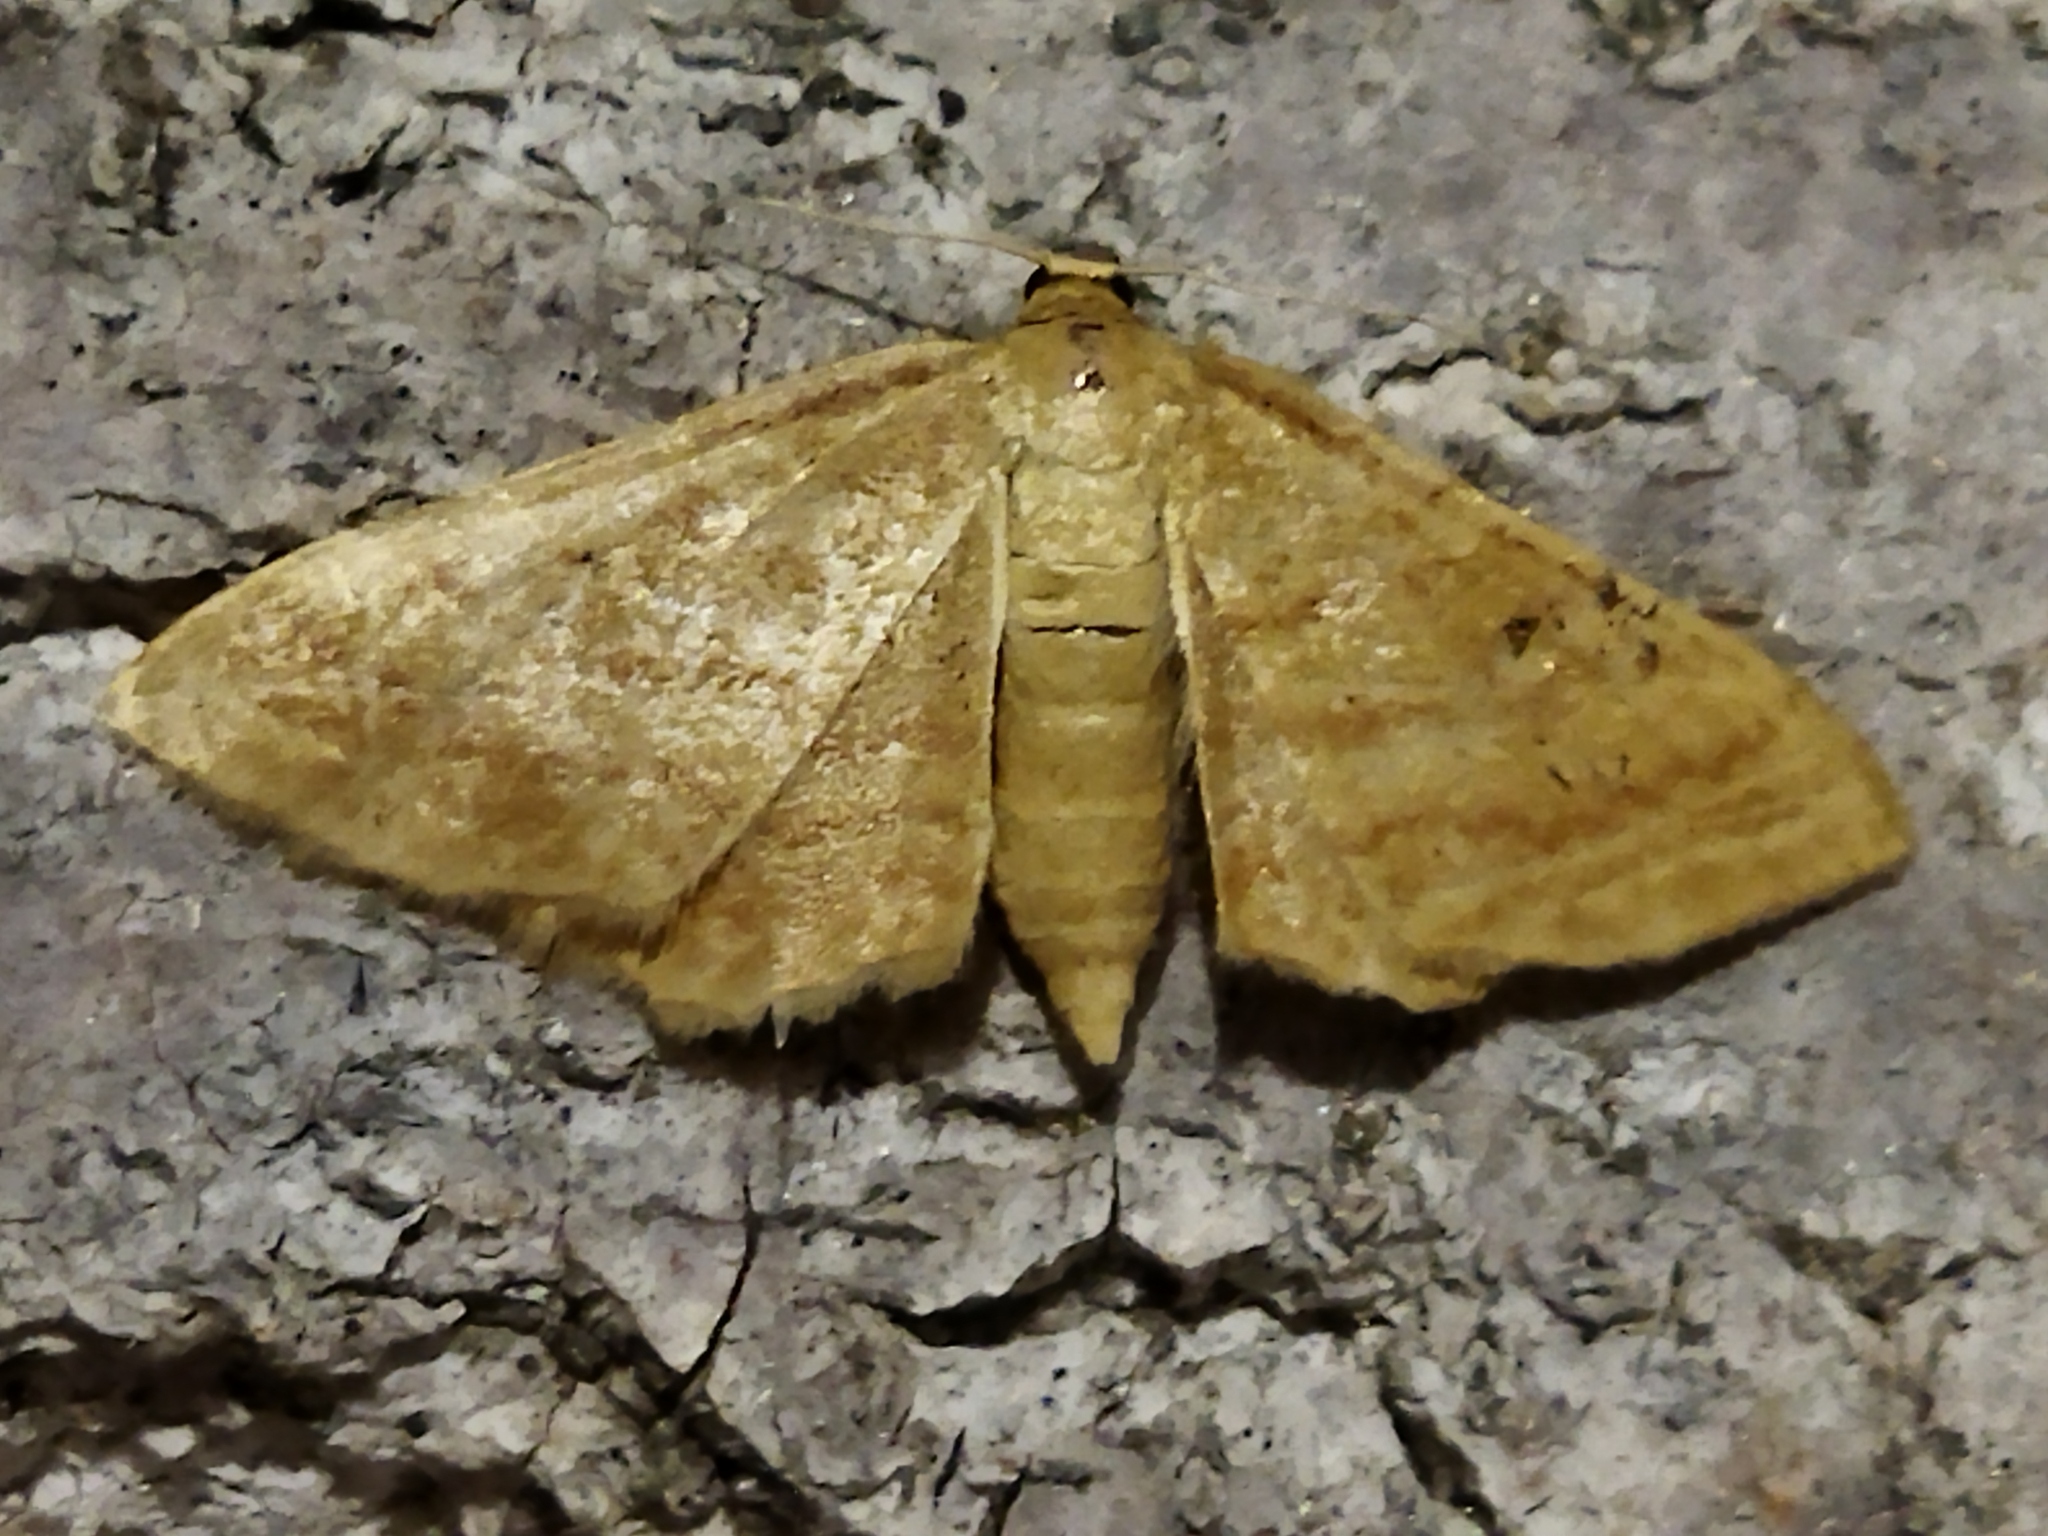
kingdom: Animalia
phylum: Arthropoda
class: Insecta
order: Lepidoptera
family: Geometridae
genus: Idaea
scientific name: Idaea rufaria
